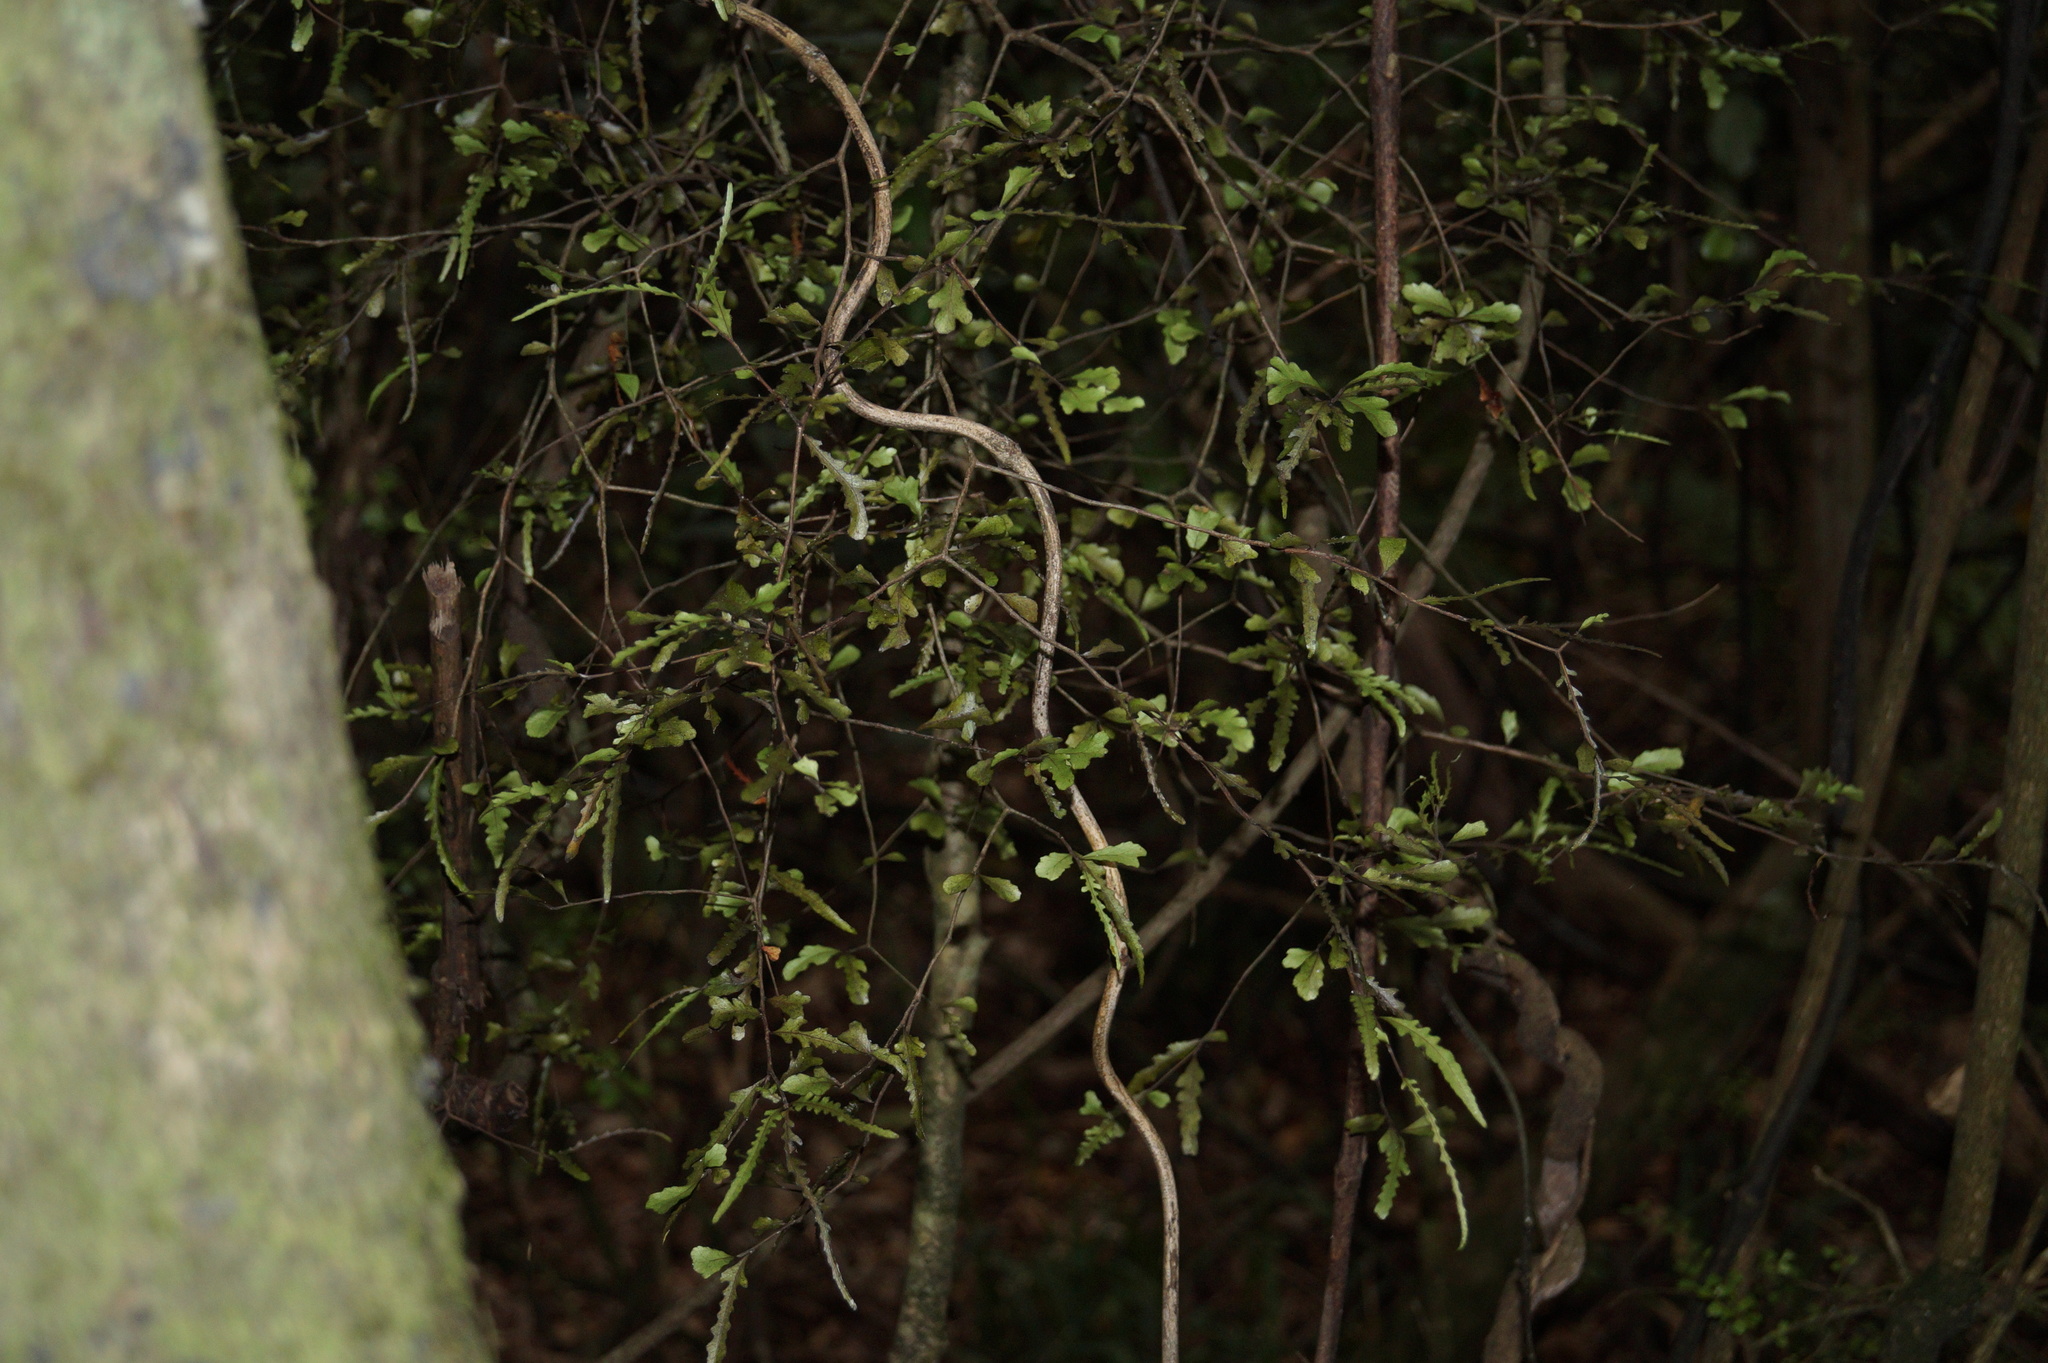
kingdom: Plantae
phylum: Tracheophyta
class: Magnoliopsida
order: Oxalidales
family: Elaeocarpaceae
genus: Elaeocarpus
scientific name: Elaeocarpus hookerianus
